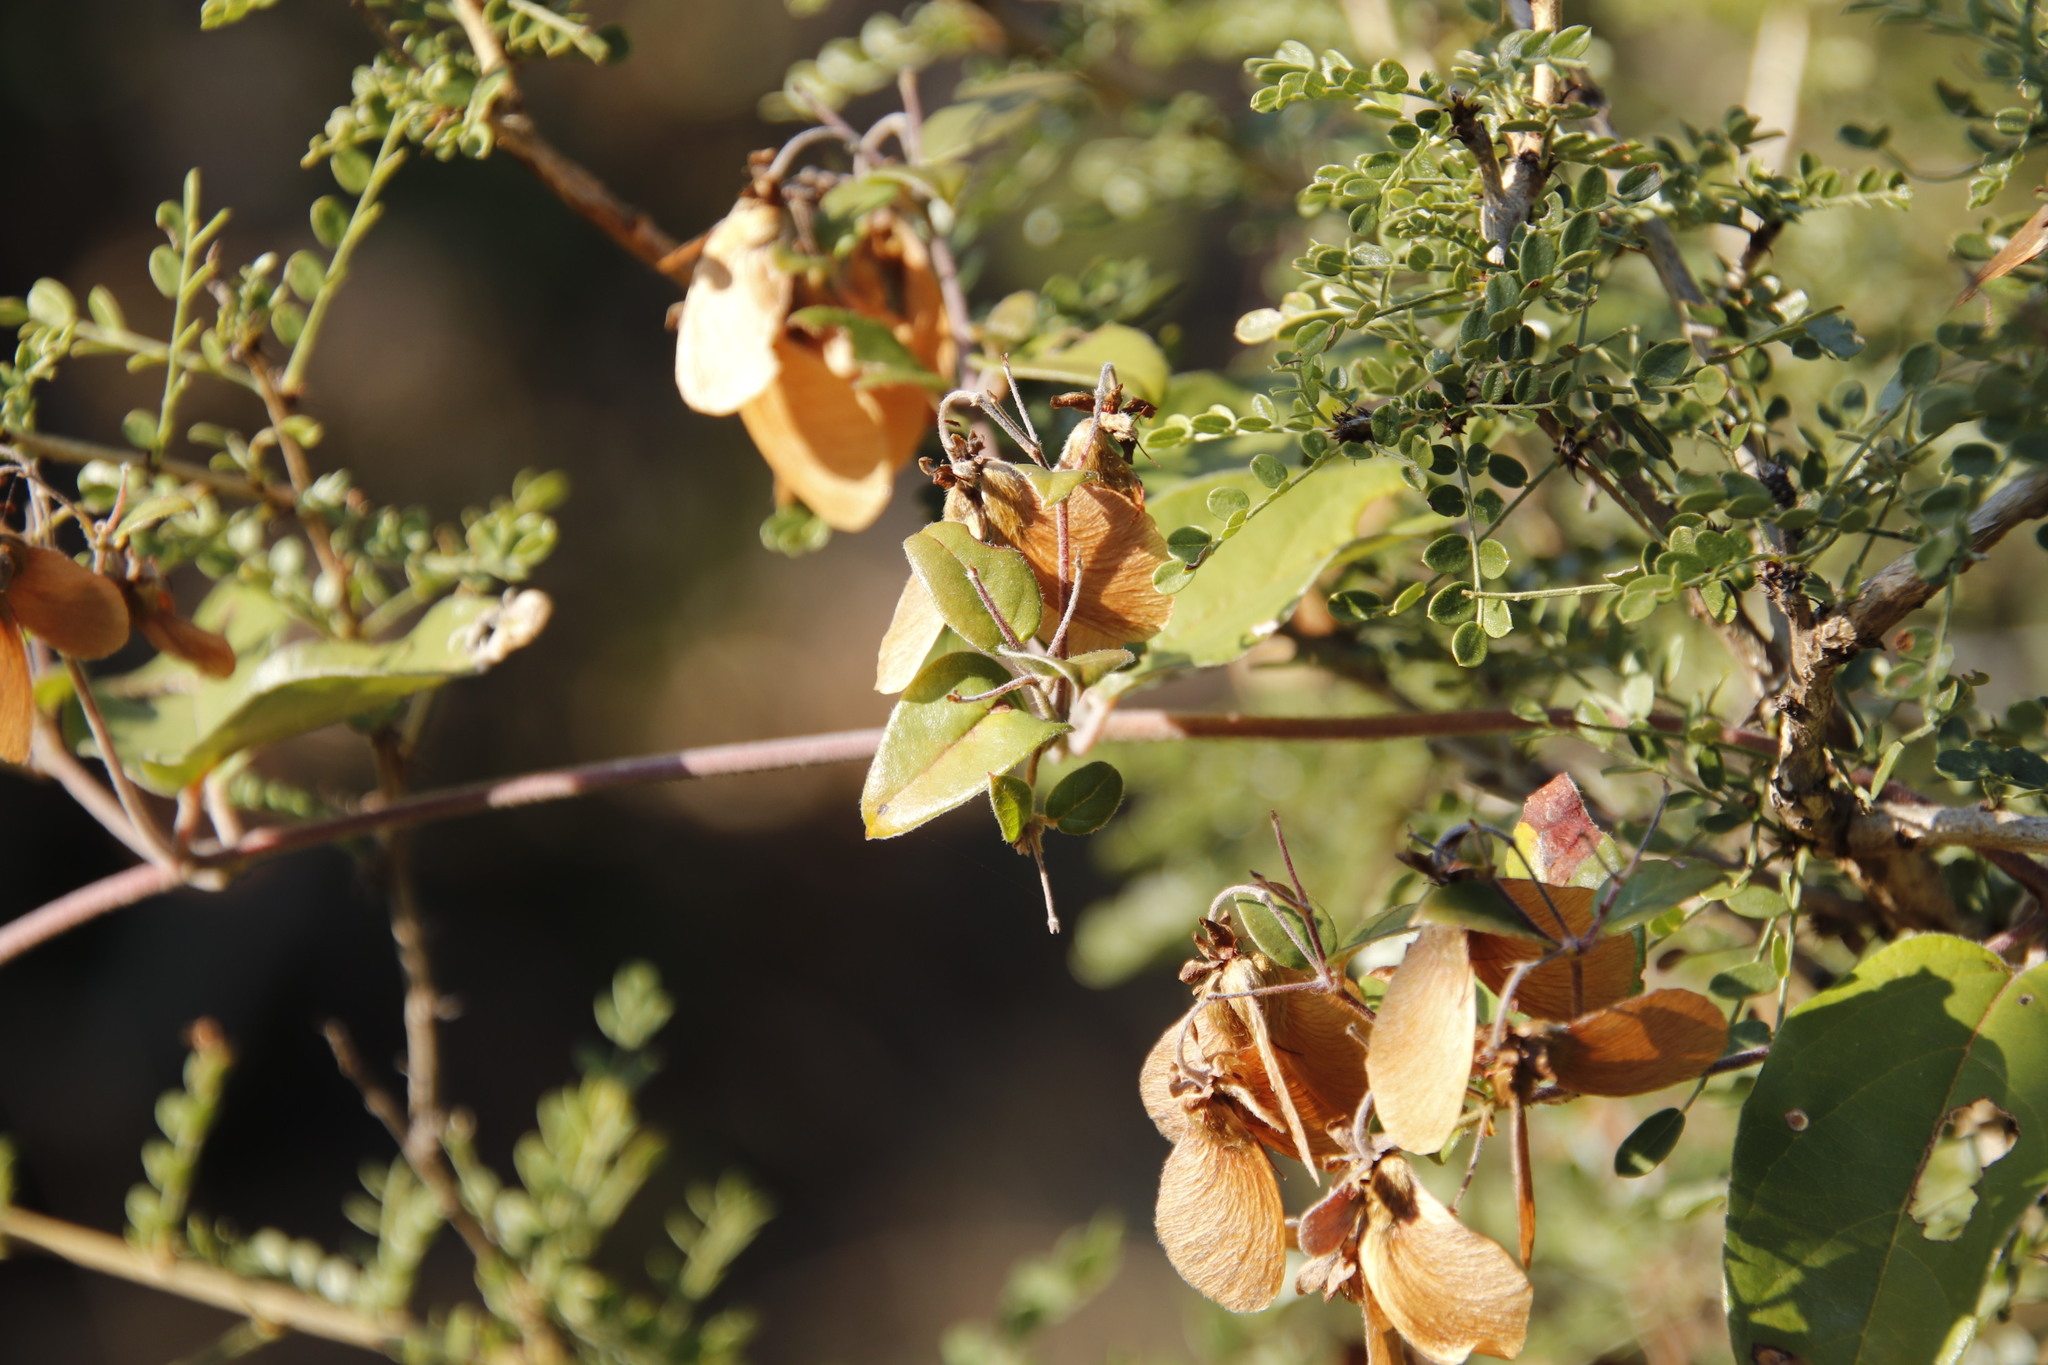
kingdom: Plantae
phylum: Tracheophyta
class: Magnoliopsida
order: Malpighiales
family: Malpighiaceae
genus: Sphedamnocarpus
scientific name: Sphedamnocarpus pruriens
